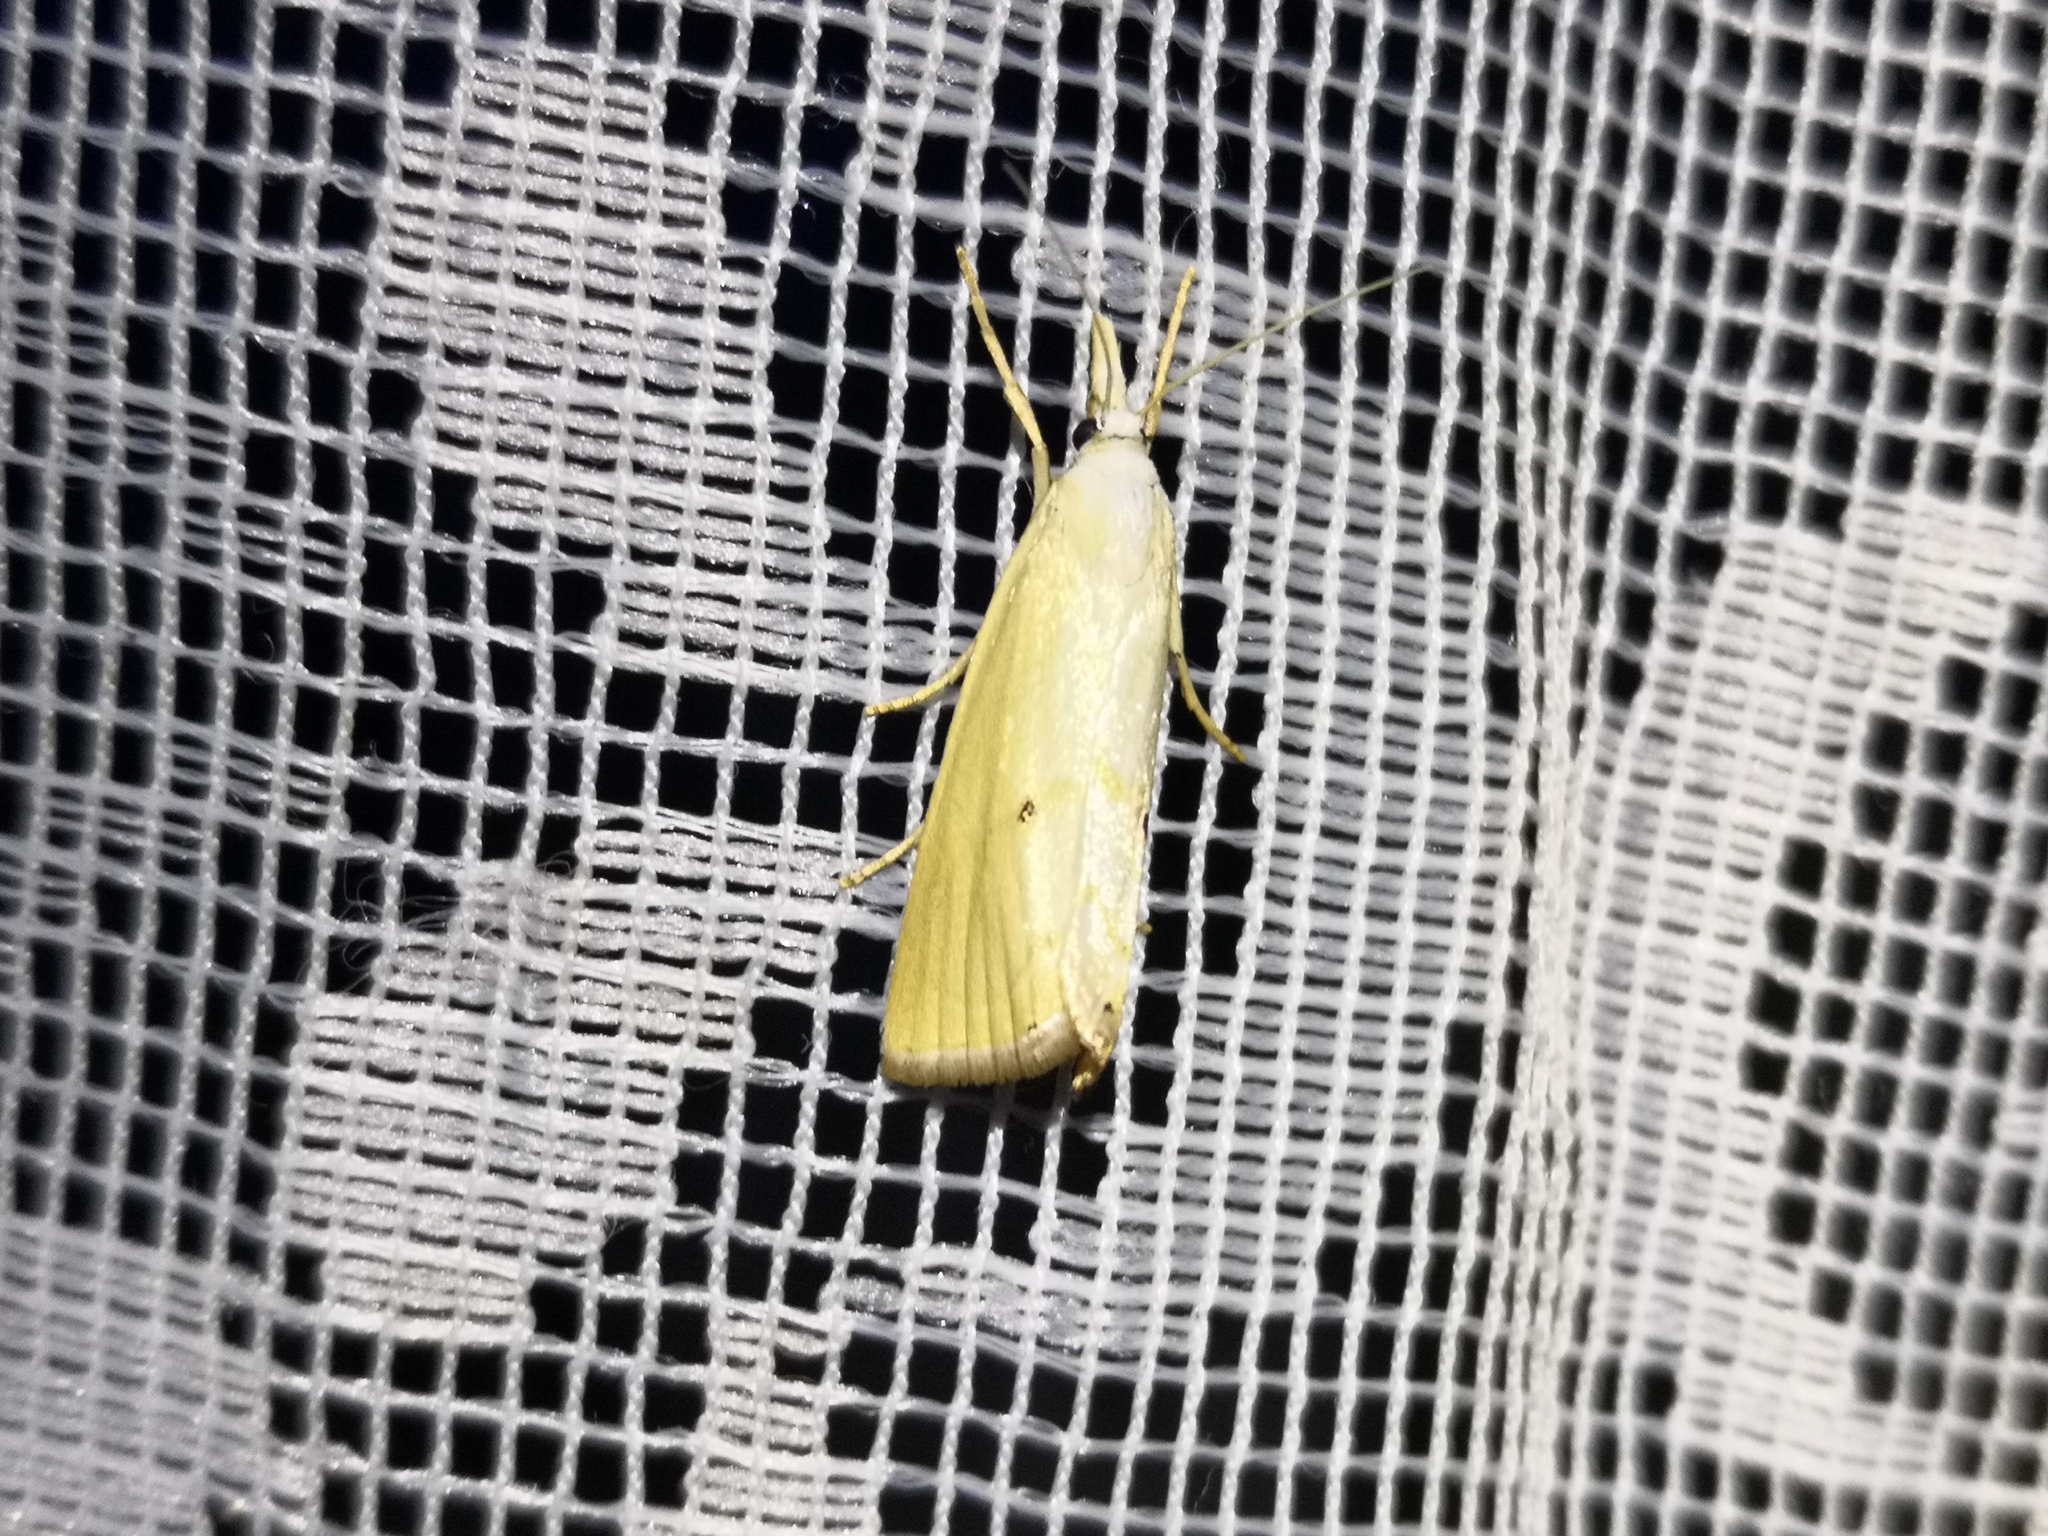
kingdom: Animalia
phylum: Arthropoda
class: Insecta
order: Lepidoptera
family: Crambidae
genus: Xanthocrambus
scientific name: Xanthocrambus saxonellus
